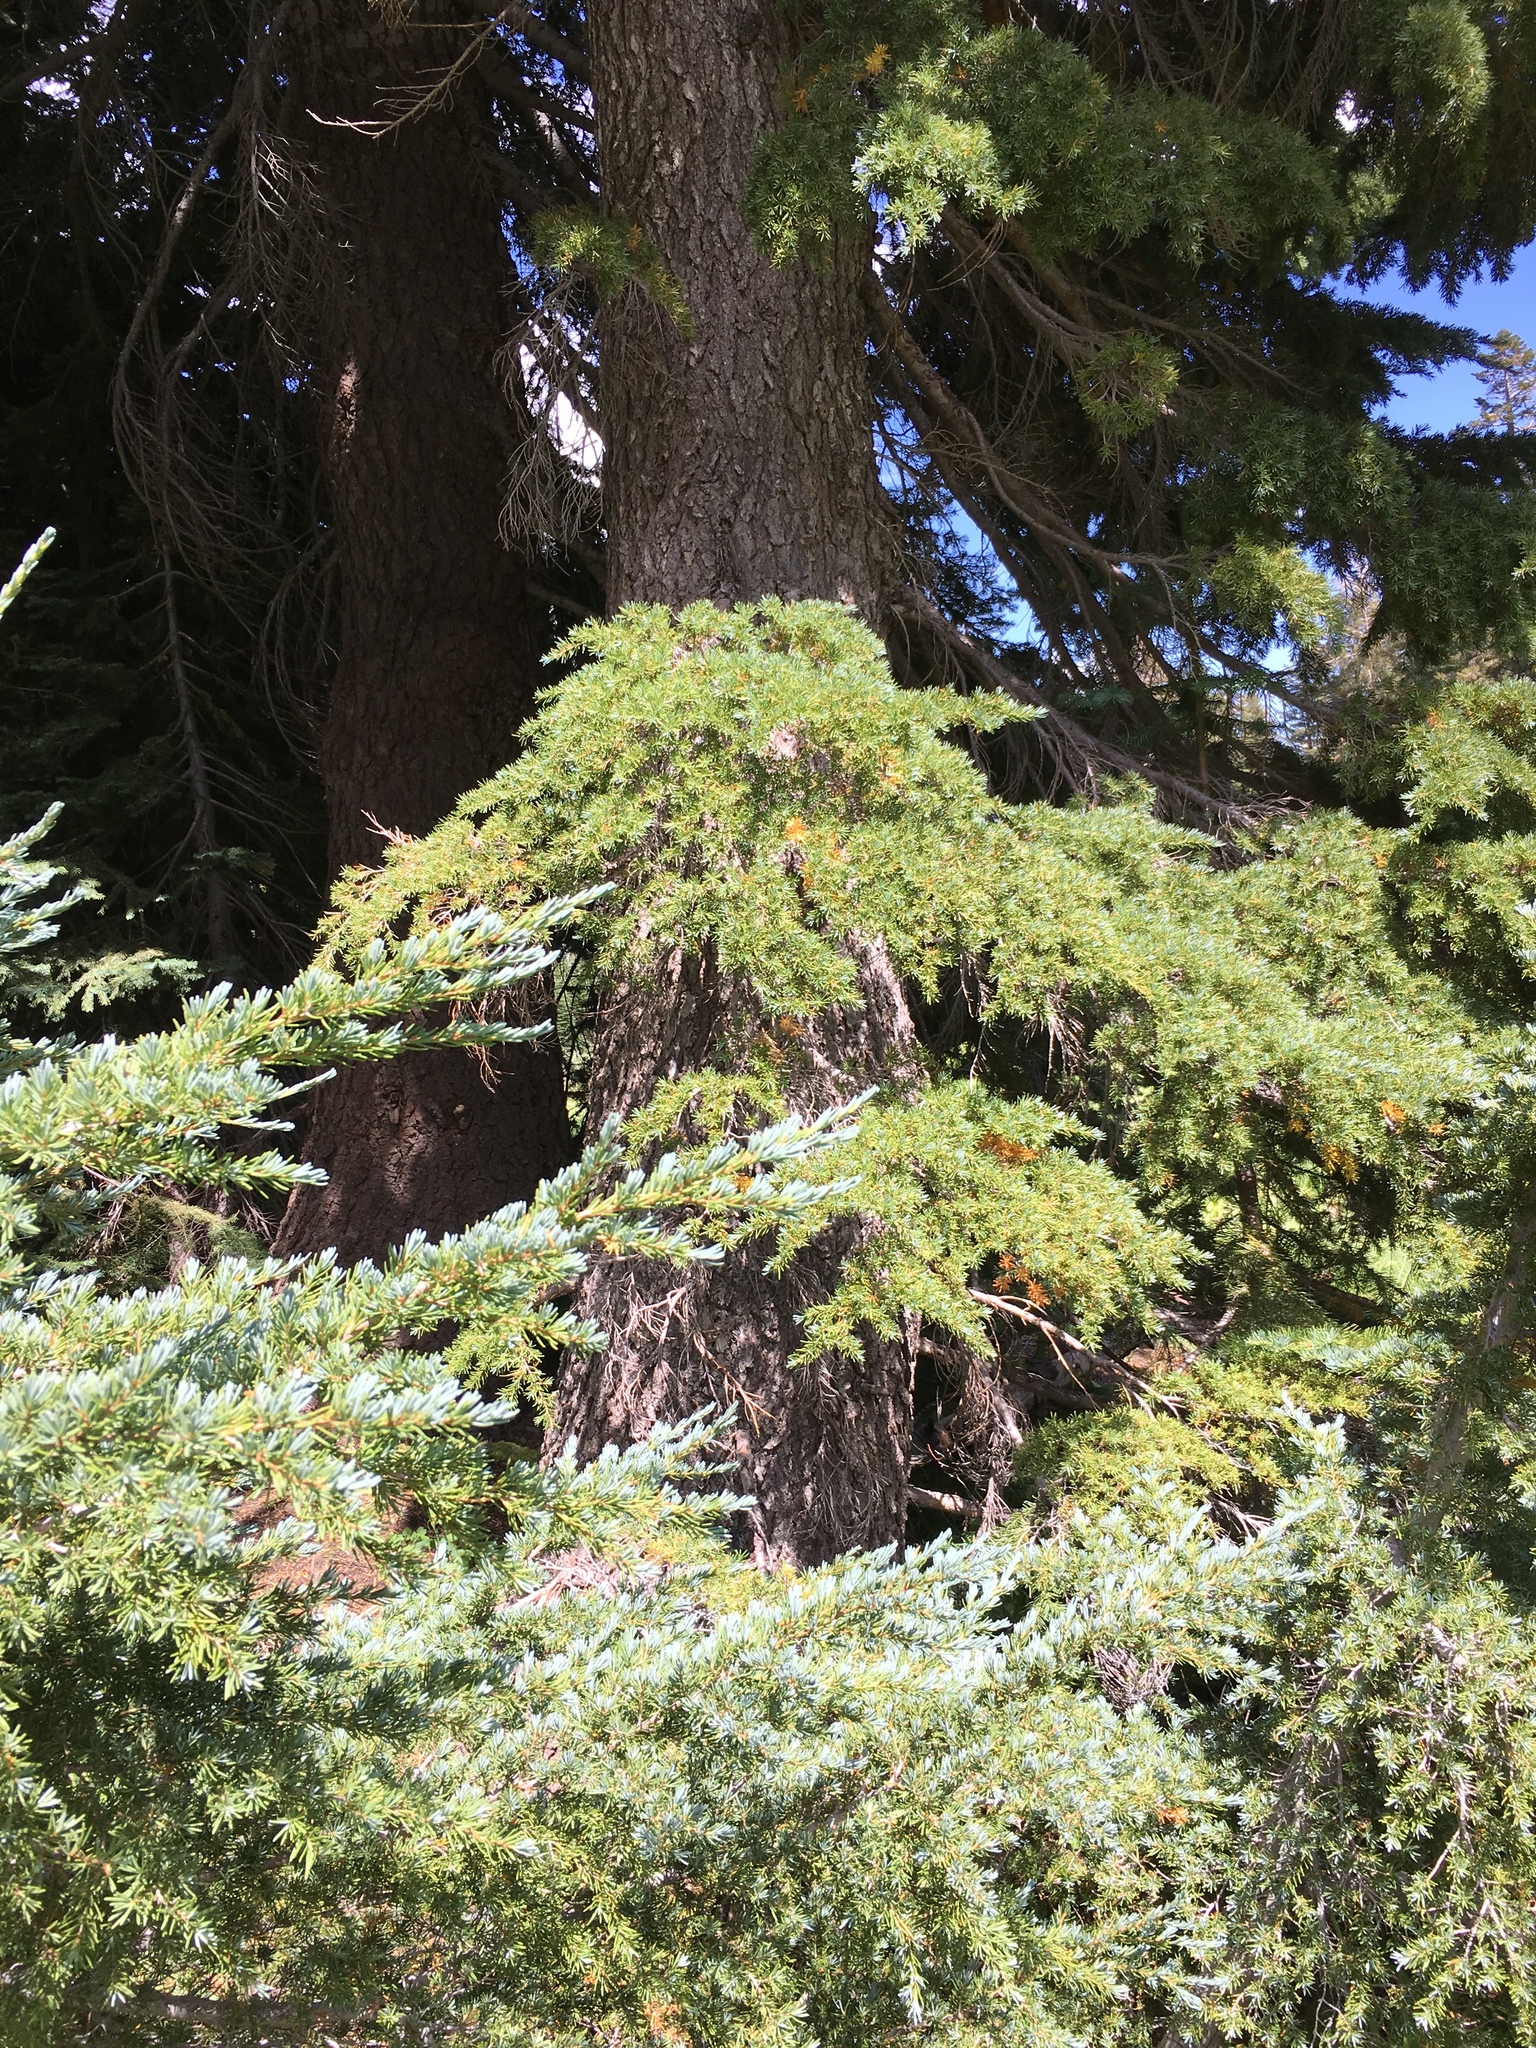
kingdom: Plantae
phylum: Tracheophyta
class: Pinopsida
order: Pinales
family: Pinaceae
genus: Tsuga
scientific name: Tsuga mertensiana
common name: Mountain hemlock
